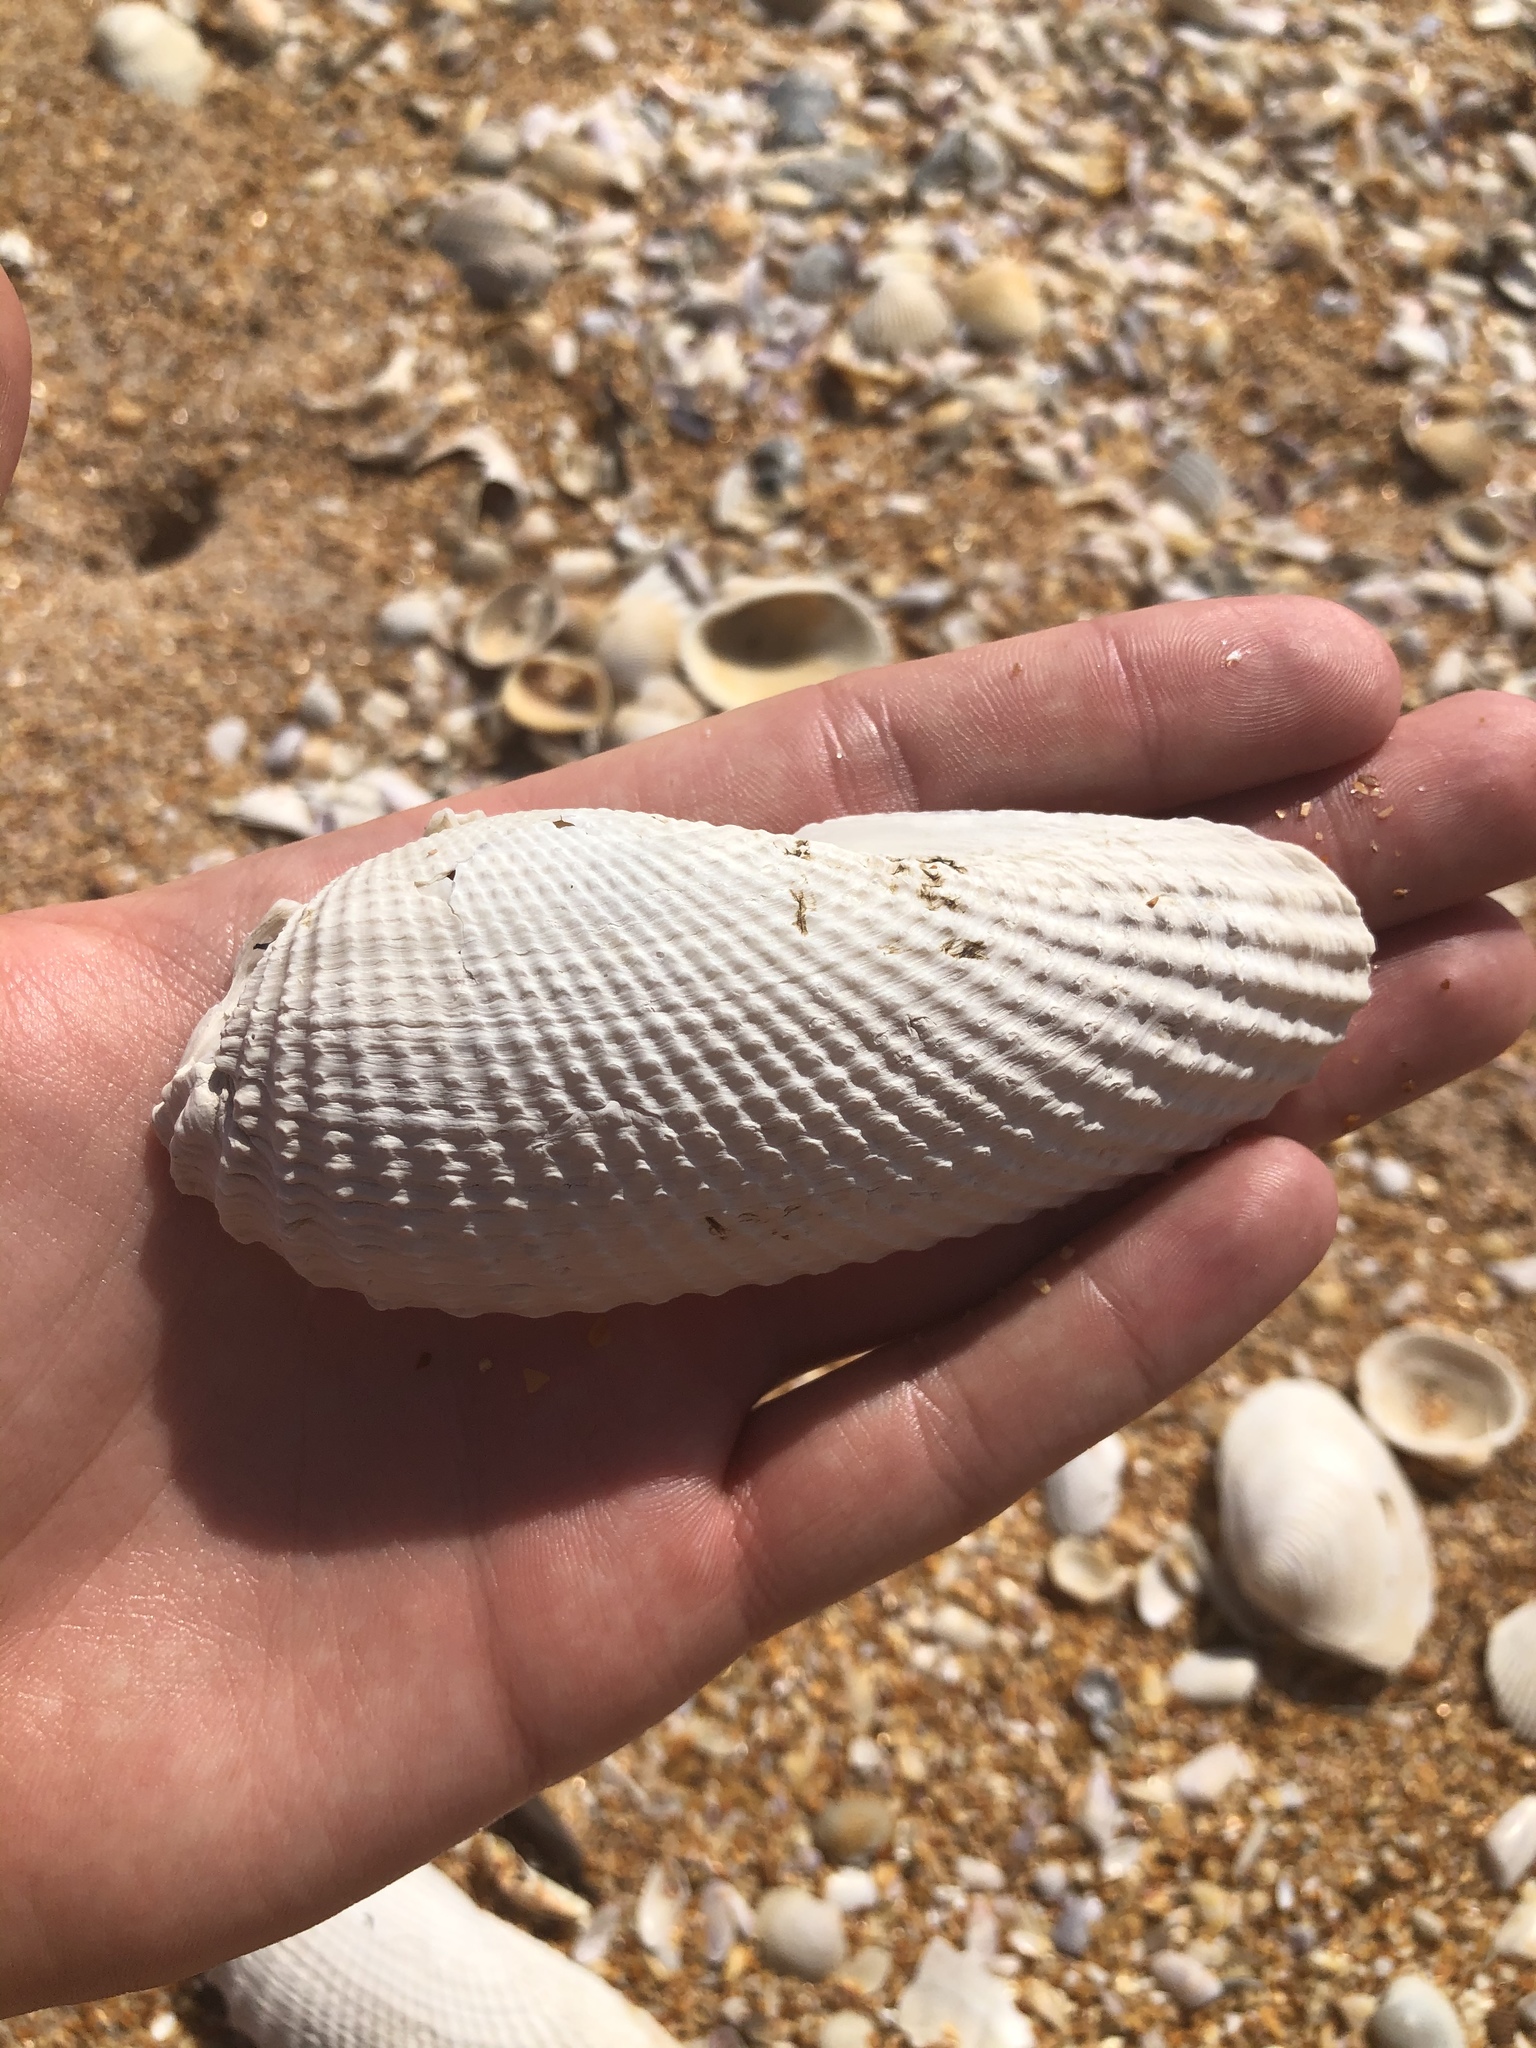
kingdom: Animalia
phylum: Mollusca
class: Bivalvia
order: Myida
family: Pholadidae
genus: Cyrtopleura
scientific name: Cyrtopleura costata
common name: Angel wing
